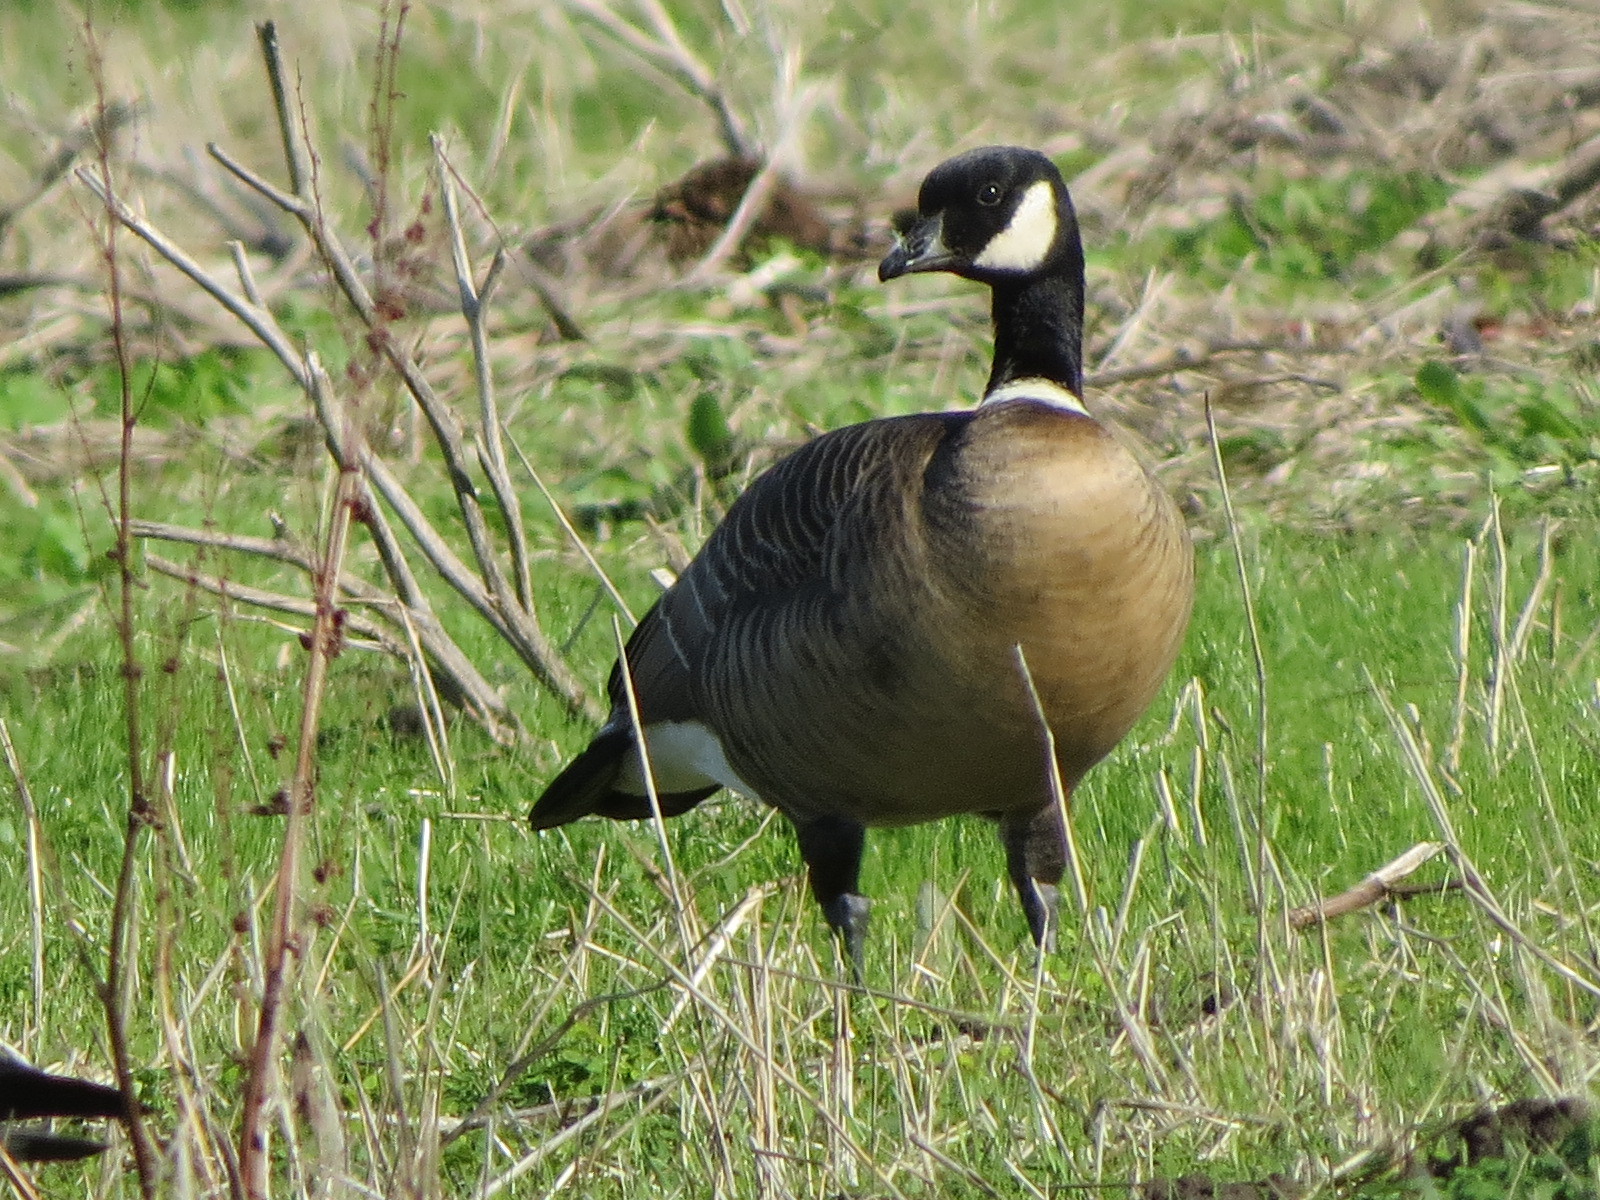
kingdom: Animalia
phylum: Chordata
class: Aves
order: Anseriformes
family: Anatidae
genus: Branta
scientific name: Branta hutchinsii
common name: Cackling goose
